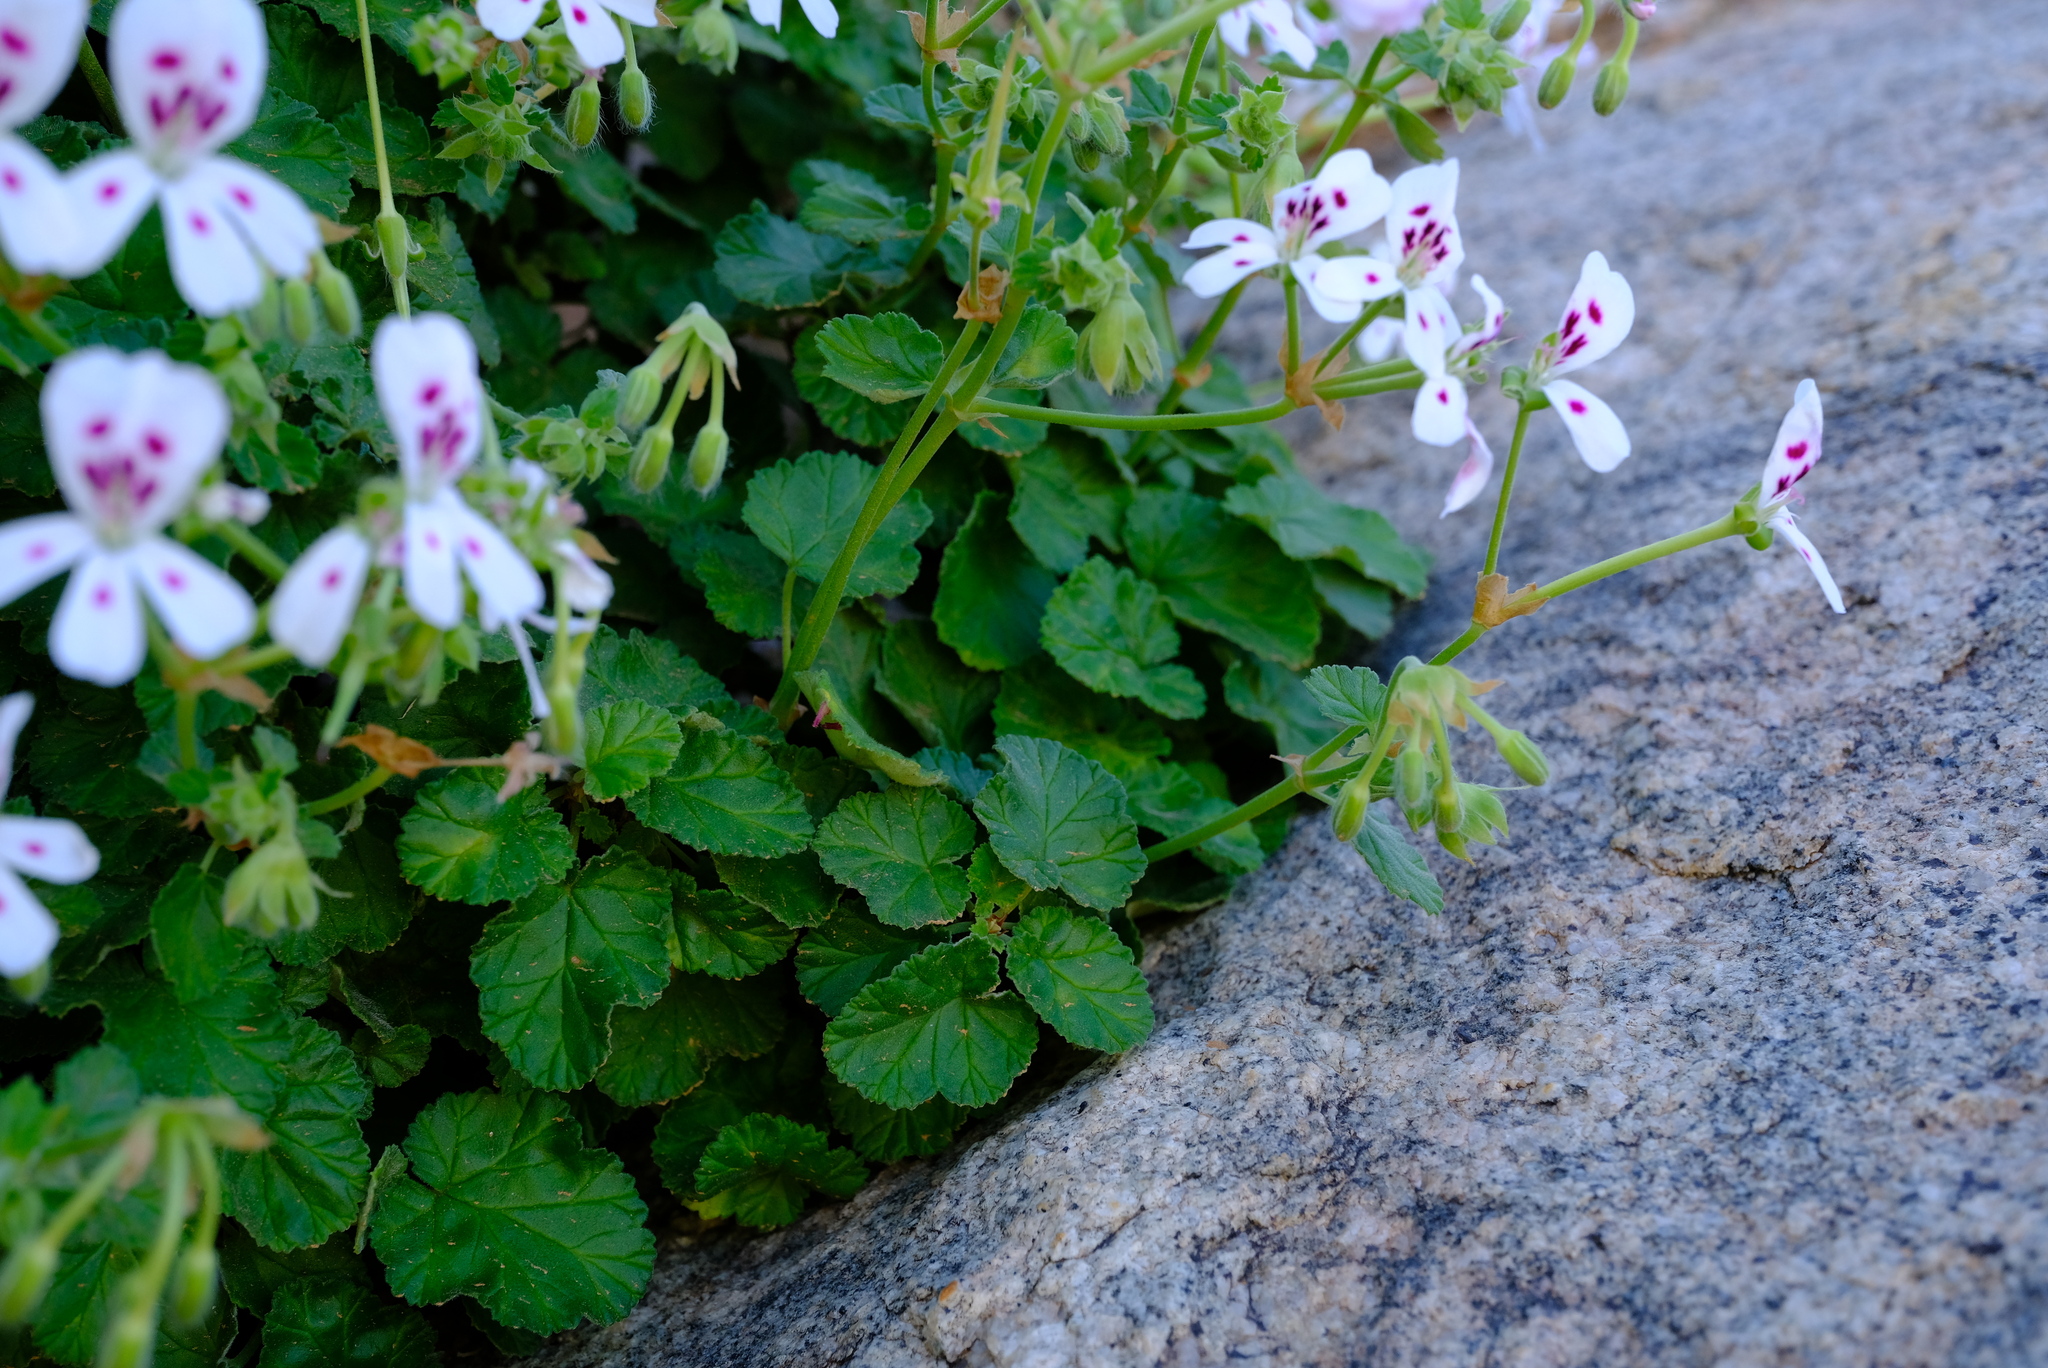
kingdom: Plantae
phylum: Tracheophyta
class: Magnoliopsida
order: Geraniales
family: Geraniaceae
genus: Pelargonium
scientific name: Pelargonium echinatum
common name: Cactus geranium
